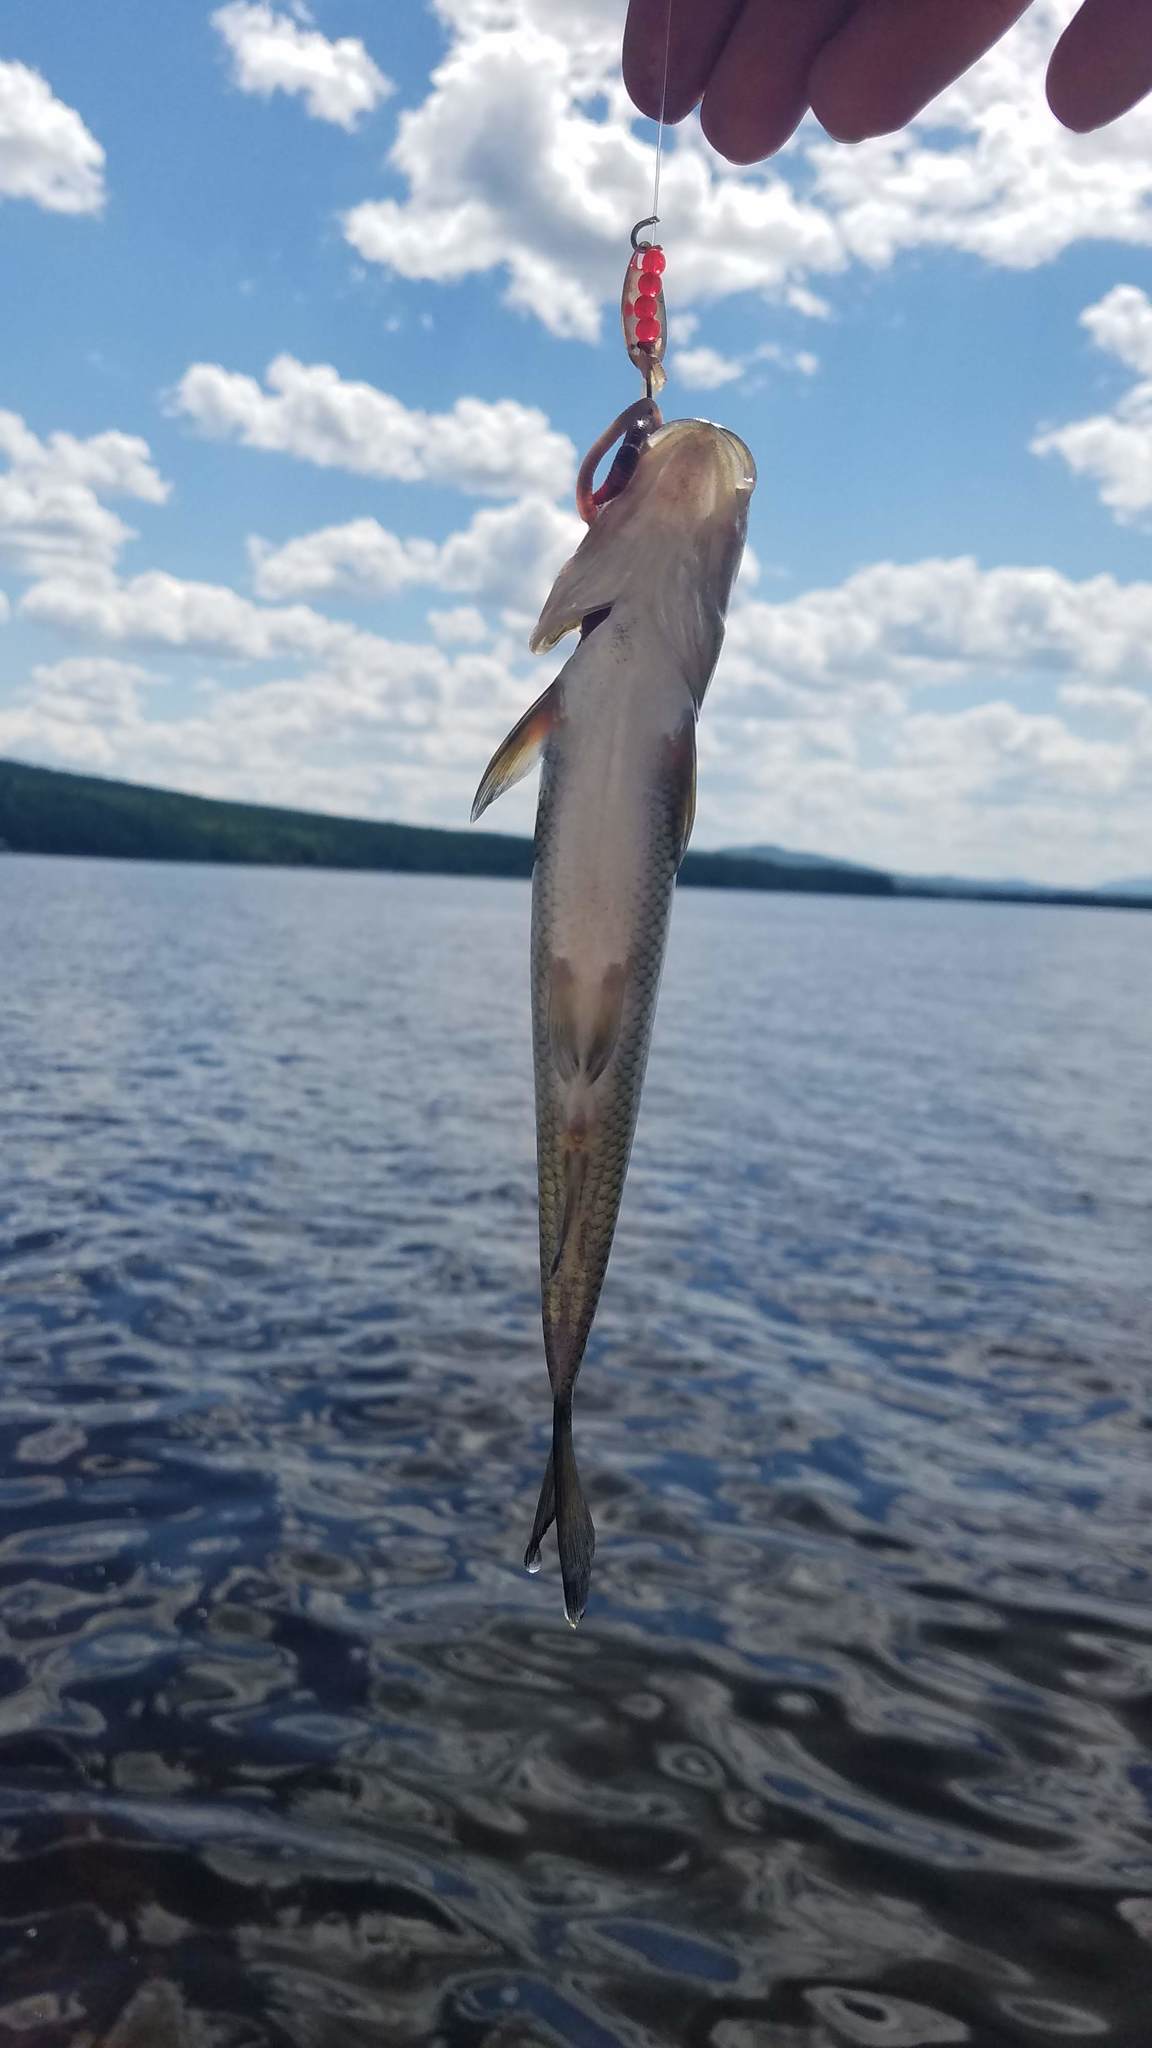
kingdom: Animalia
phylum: Chordata
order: Cypriniformes
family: Cyprinidae
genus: Semotilus
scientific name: Semotilus corporalis
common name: Fallfish
